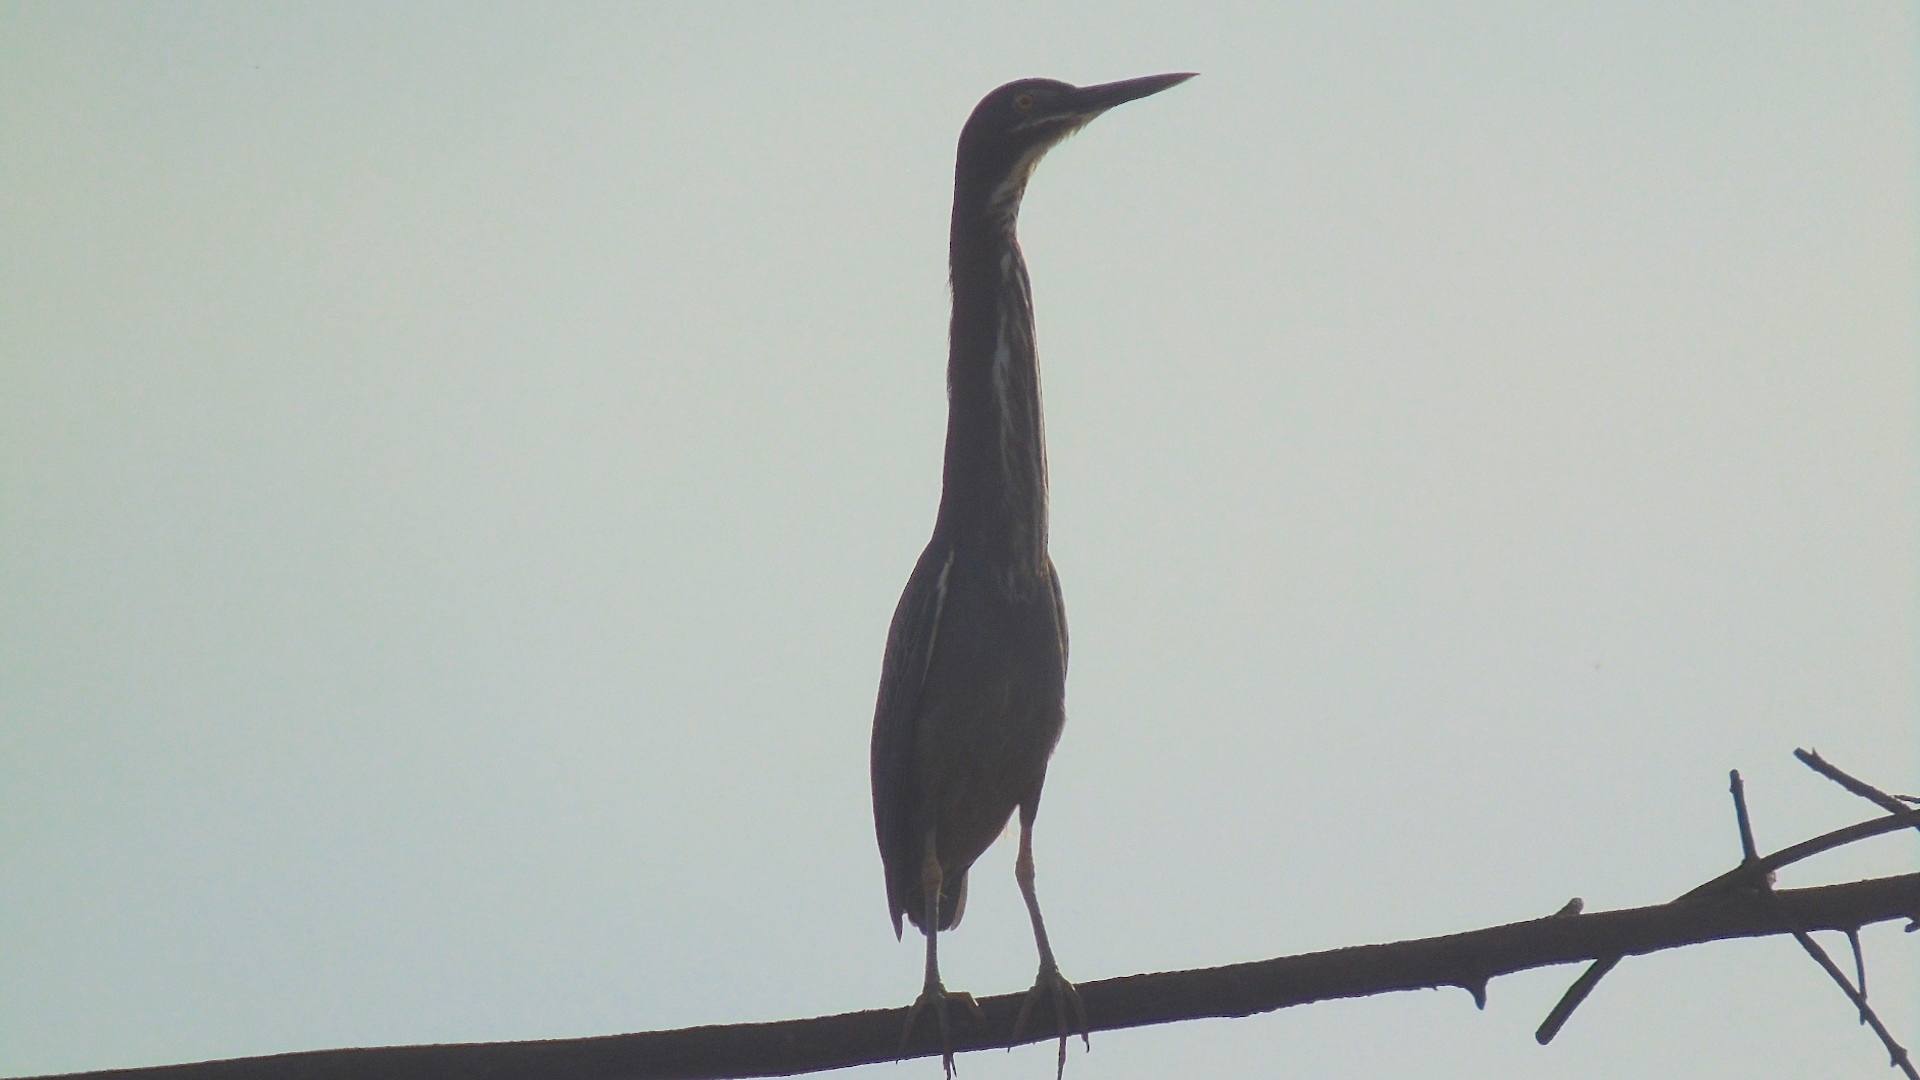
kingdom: Animalia
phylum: Chordata
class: Aves
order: Pelecaniformes
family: Ardeidae
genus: Butorides
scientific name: Butorides virescens
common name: Green heron
